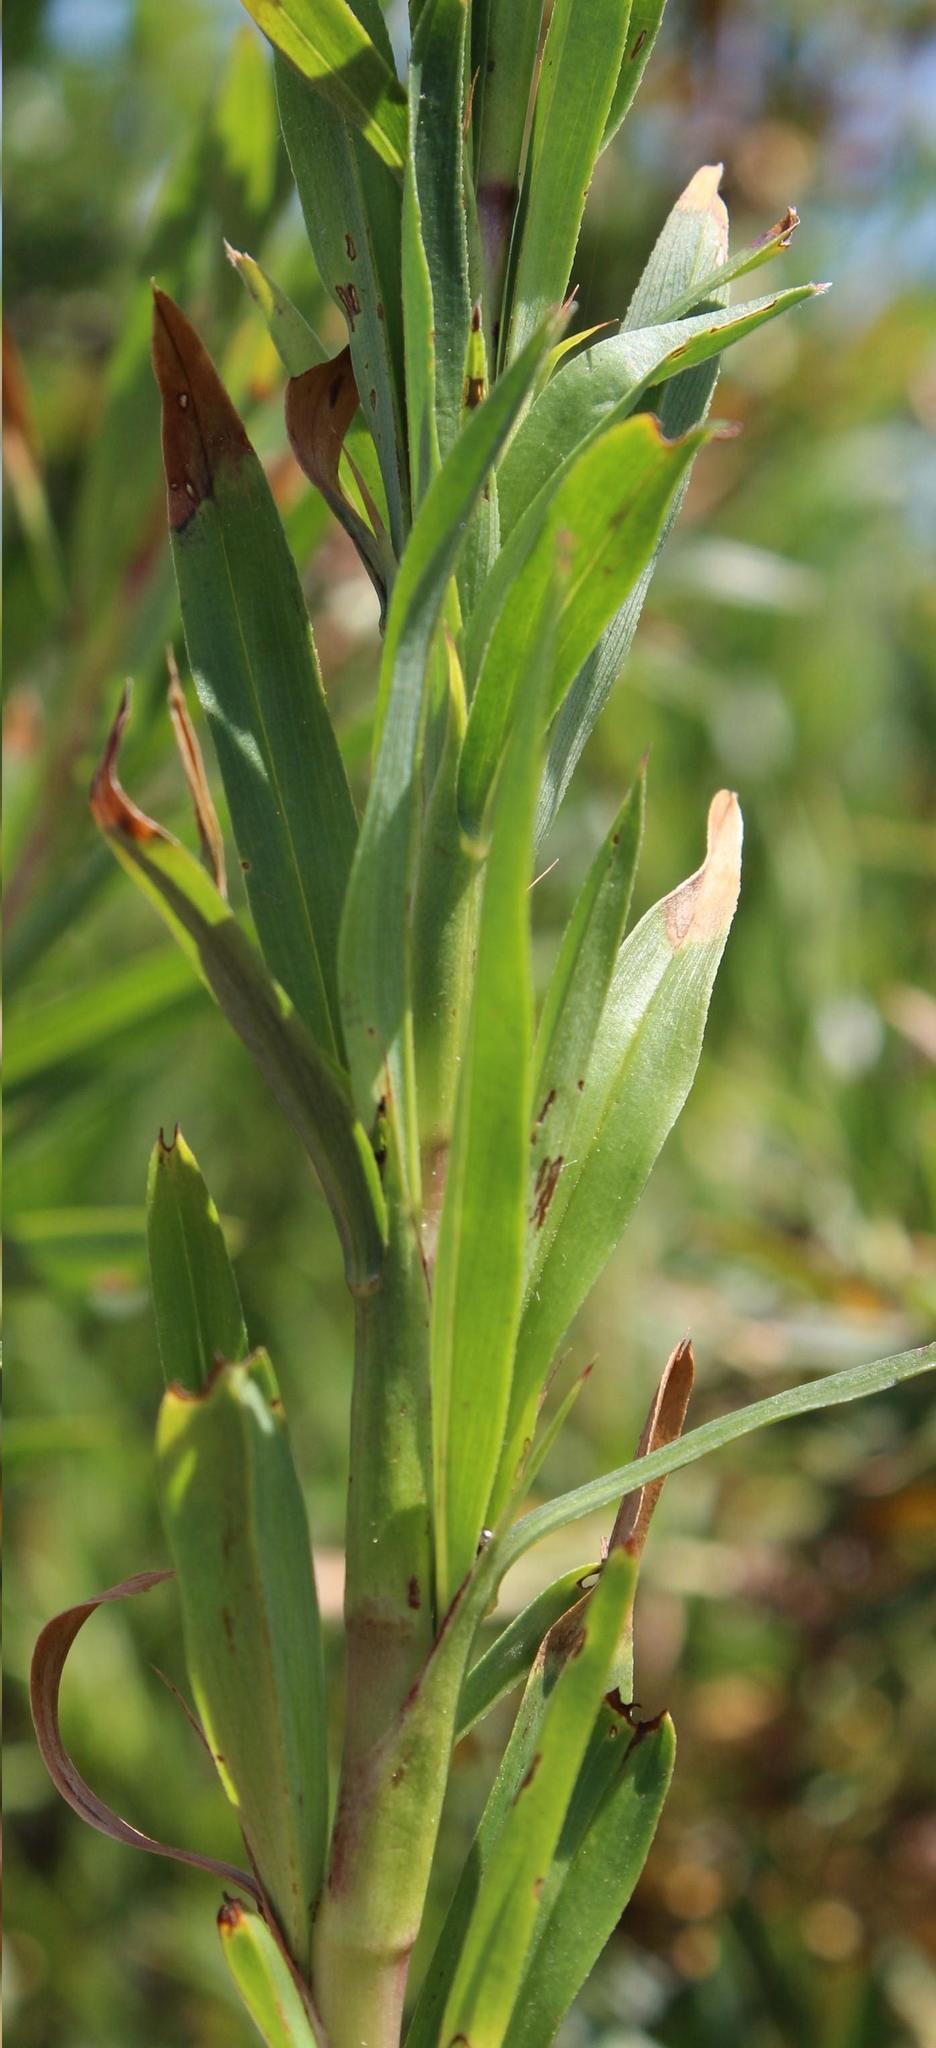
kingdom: Plantae
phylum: Tracheophyta
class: Magnoliopsida
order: Rosales
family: Rosaceae
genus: Cliffortia
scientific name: Cliffortia longifolia
